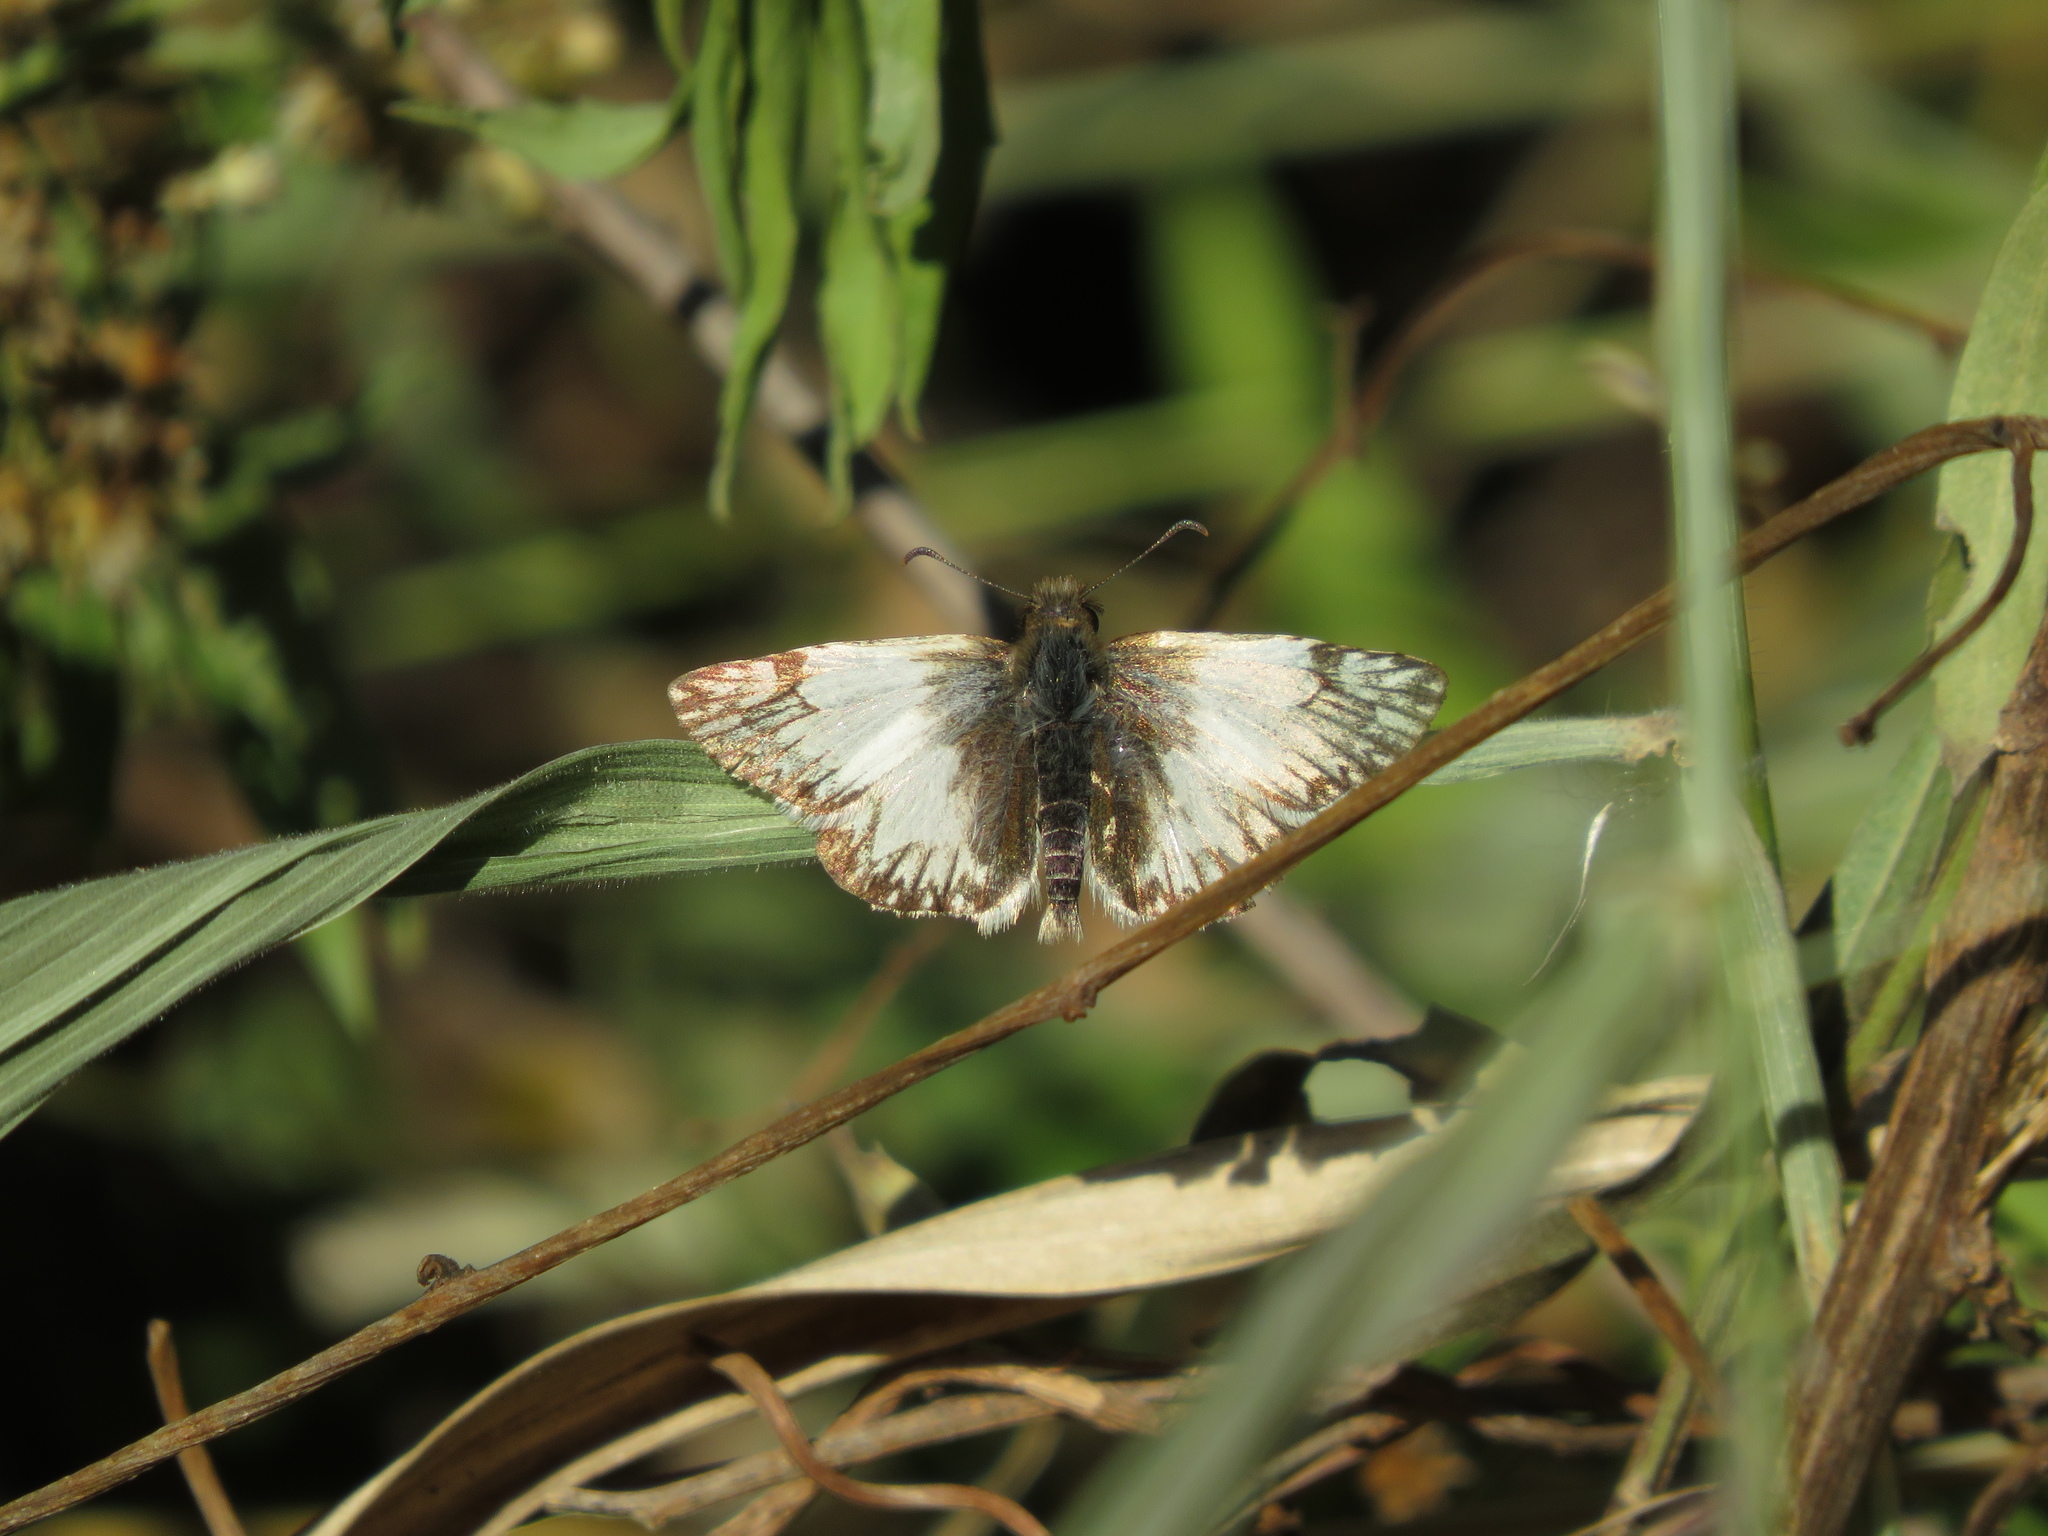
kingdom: Animalia
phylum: Arthropoda
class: Insecta
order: Lepidoptera
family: Hesperiidae
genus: Heliopetes
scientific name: Heliopetes omrina
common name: Stained white-skipper
